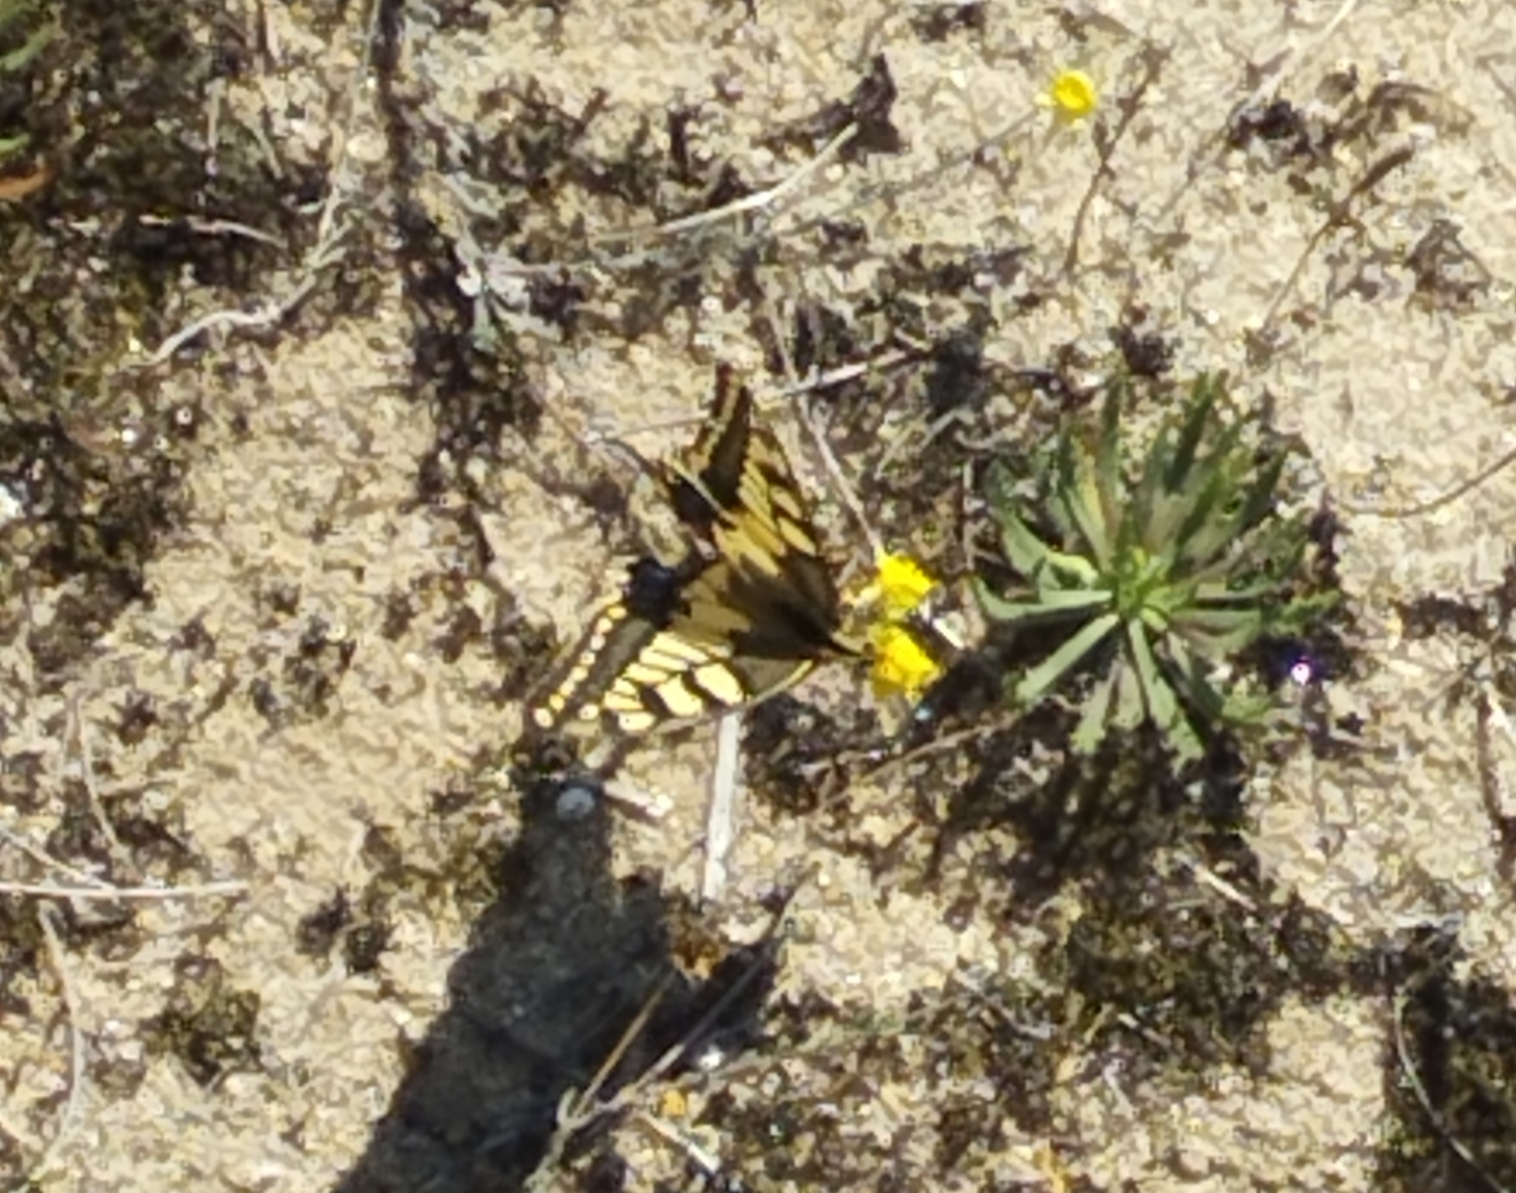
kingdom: Animalia
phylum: Arthropoda
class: Insecta
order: Lepidoptera
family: Papilionidae
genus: Papilio
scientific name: Papilio machaon
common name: Swallowtail
